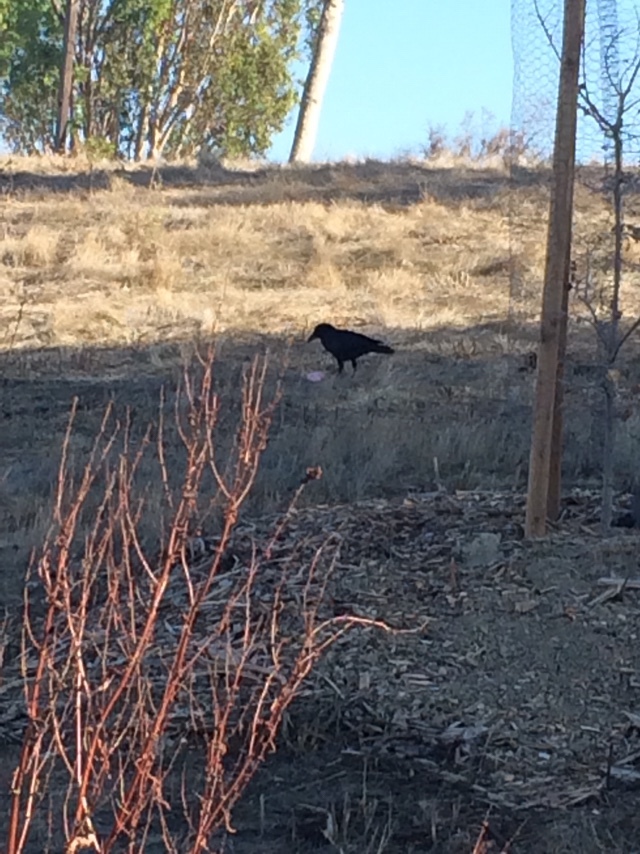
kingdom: Animalia
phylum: Chordata
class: Aves
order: Passeriformes
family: Corvidae
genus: Corvus
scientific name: Corvus brachyrhynchos
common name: American crow
